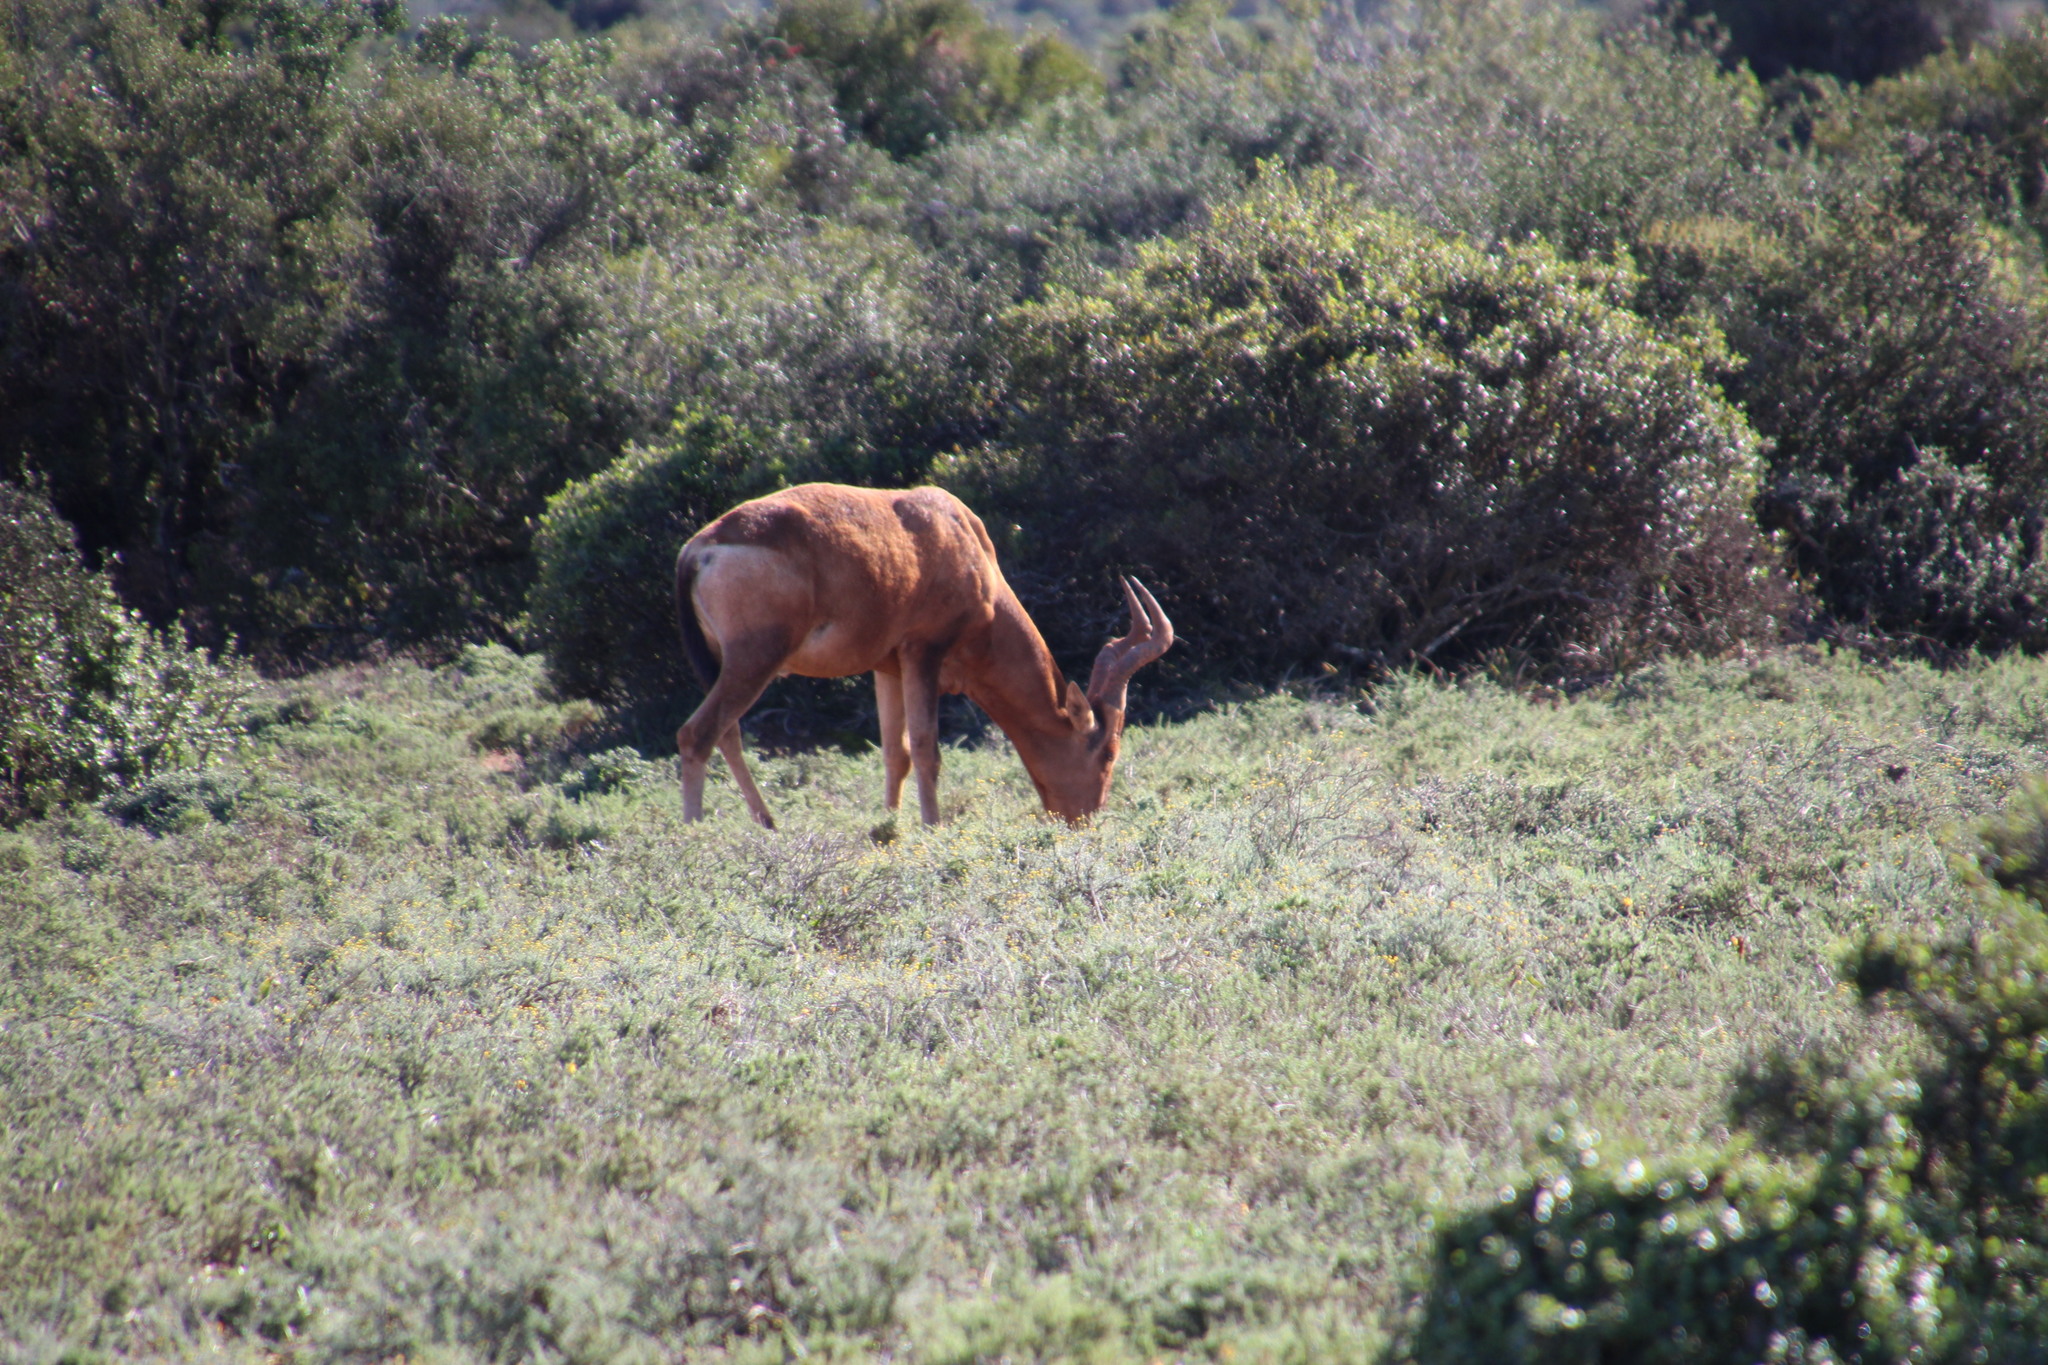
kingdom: Animalia
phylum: Chordata
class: Mammalia
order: Artiodactyla
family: Bovidae
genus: Alcelaphus
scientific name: Alcelaphus caama
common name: Red hartebeest
